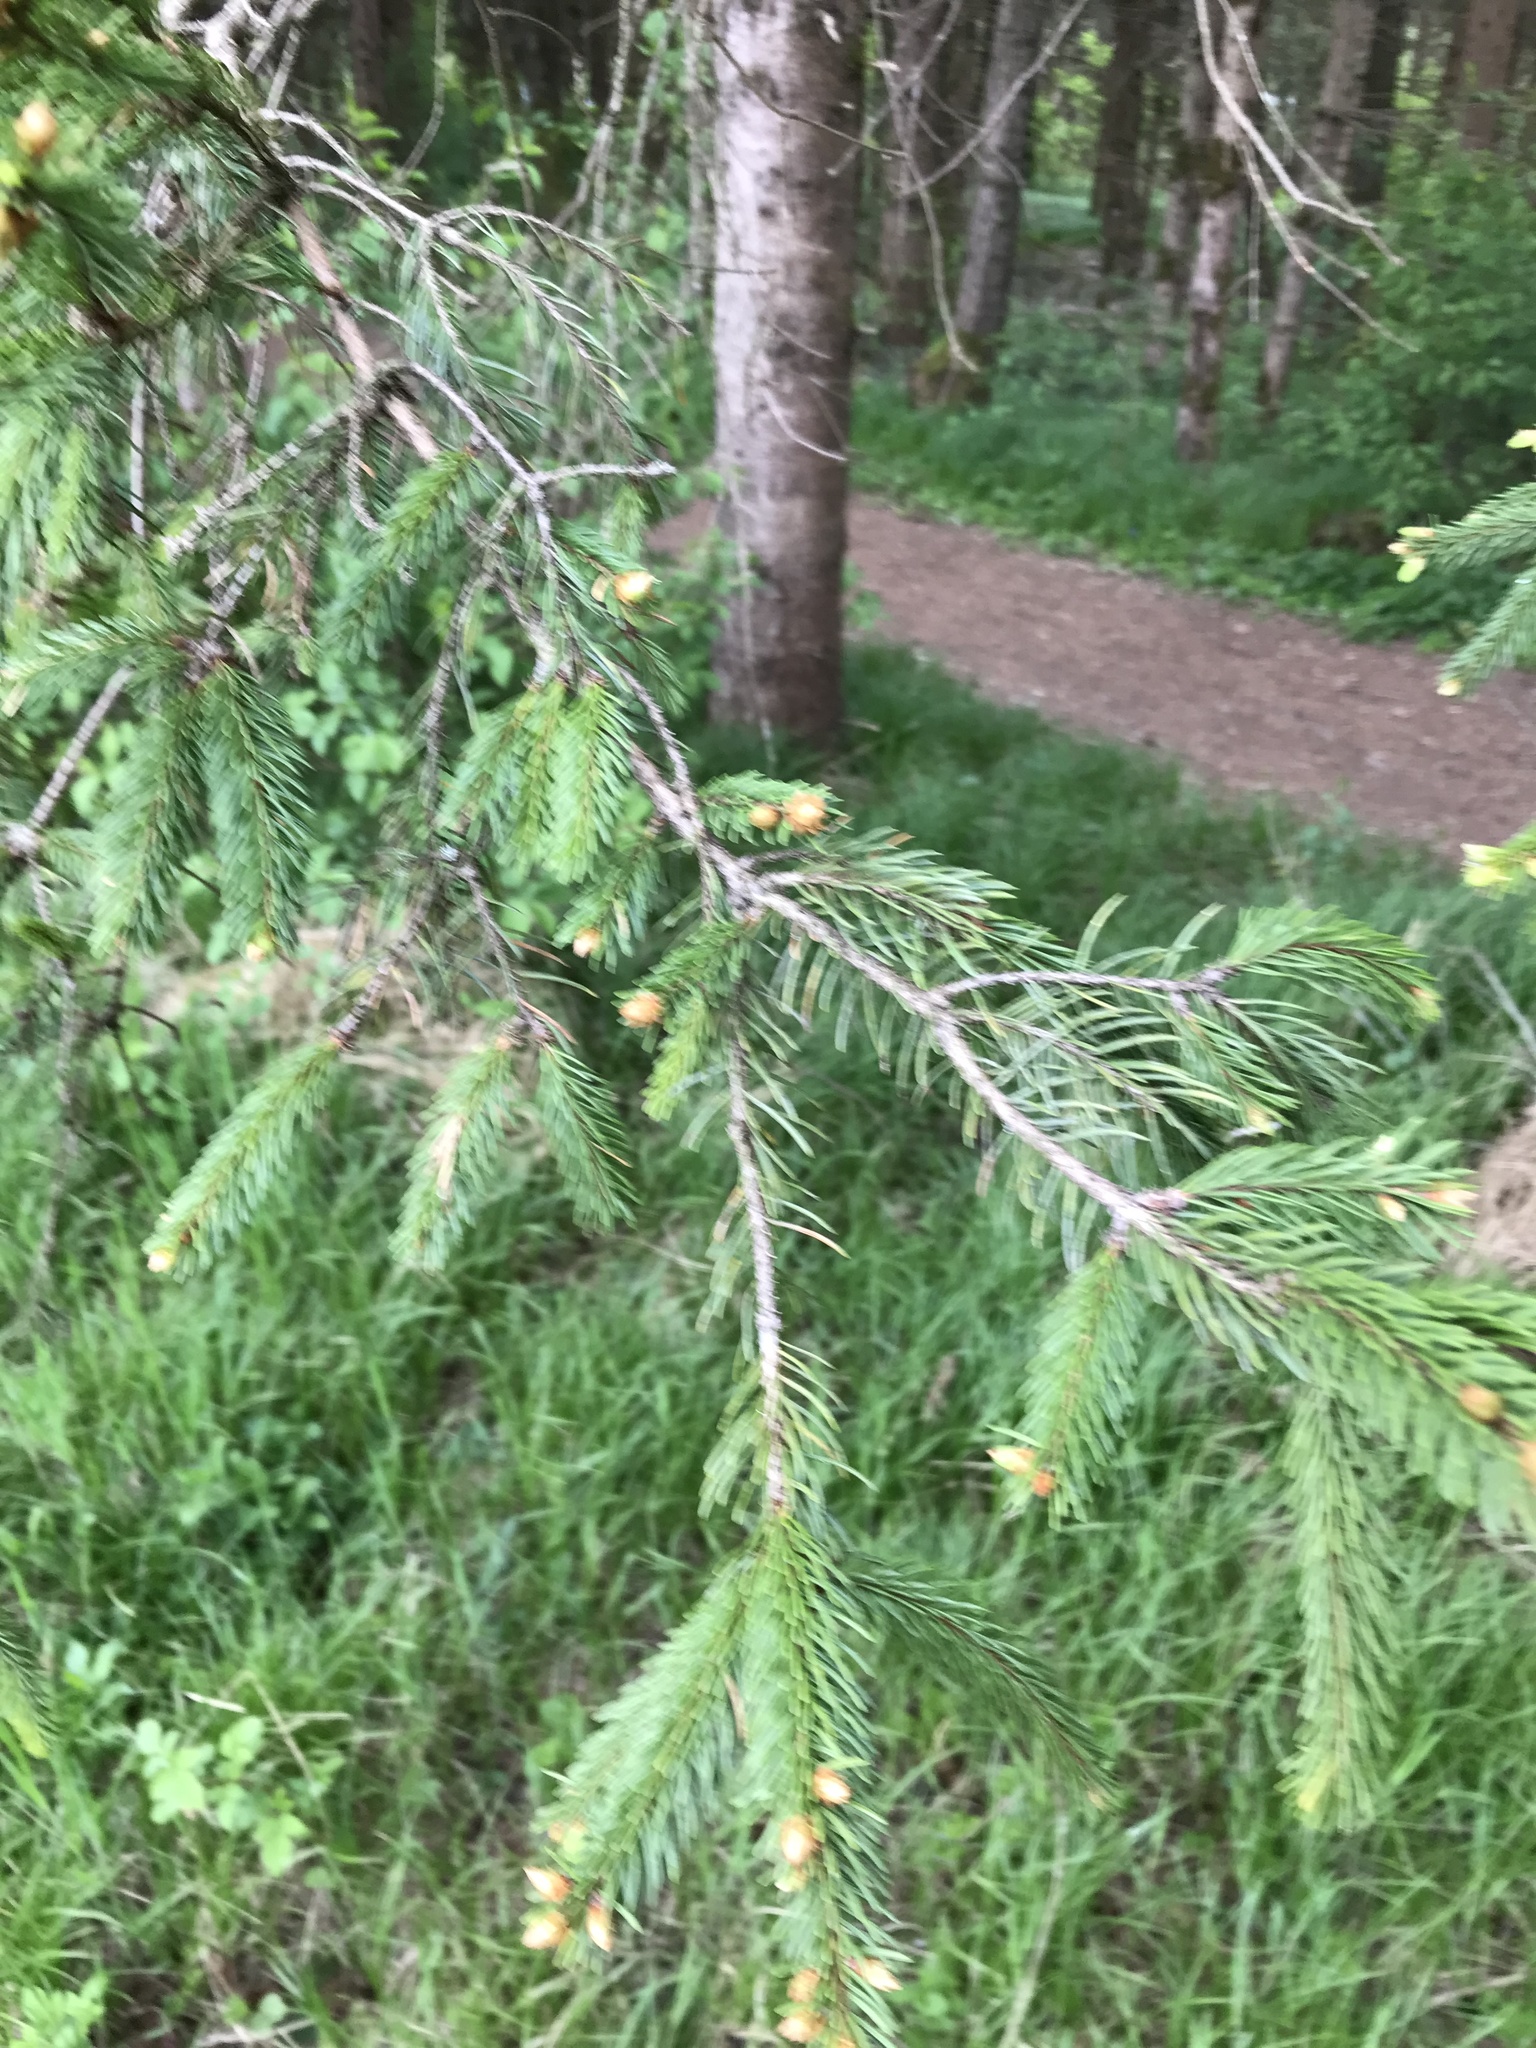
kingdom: Plantae
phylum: Tracheophyta
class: Pinopsida
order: Pinales
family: Pinaceae
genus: Picea
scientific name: Picea abies
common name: Norway spruce
